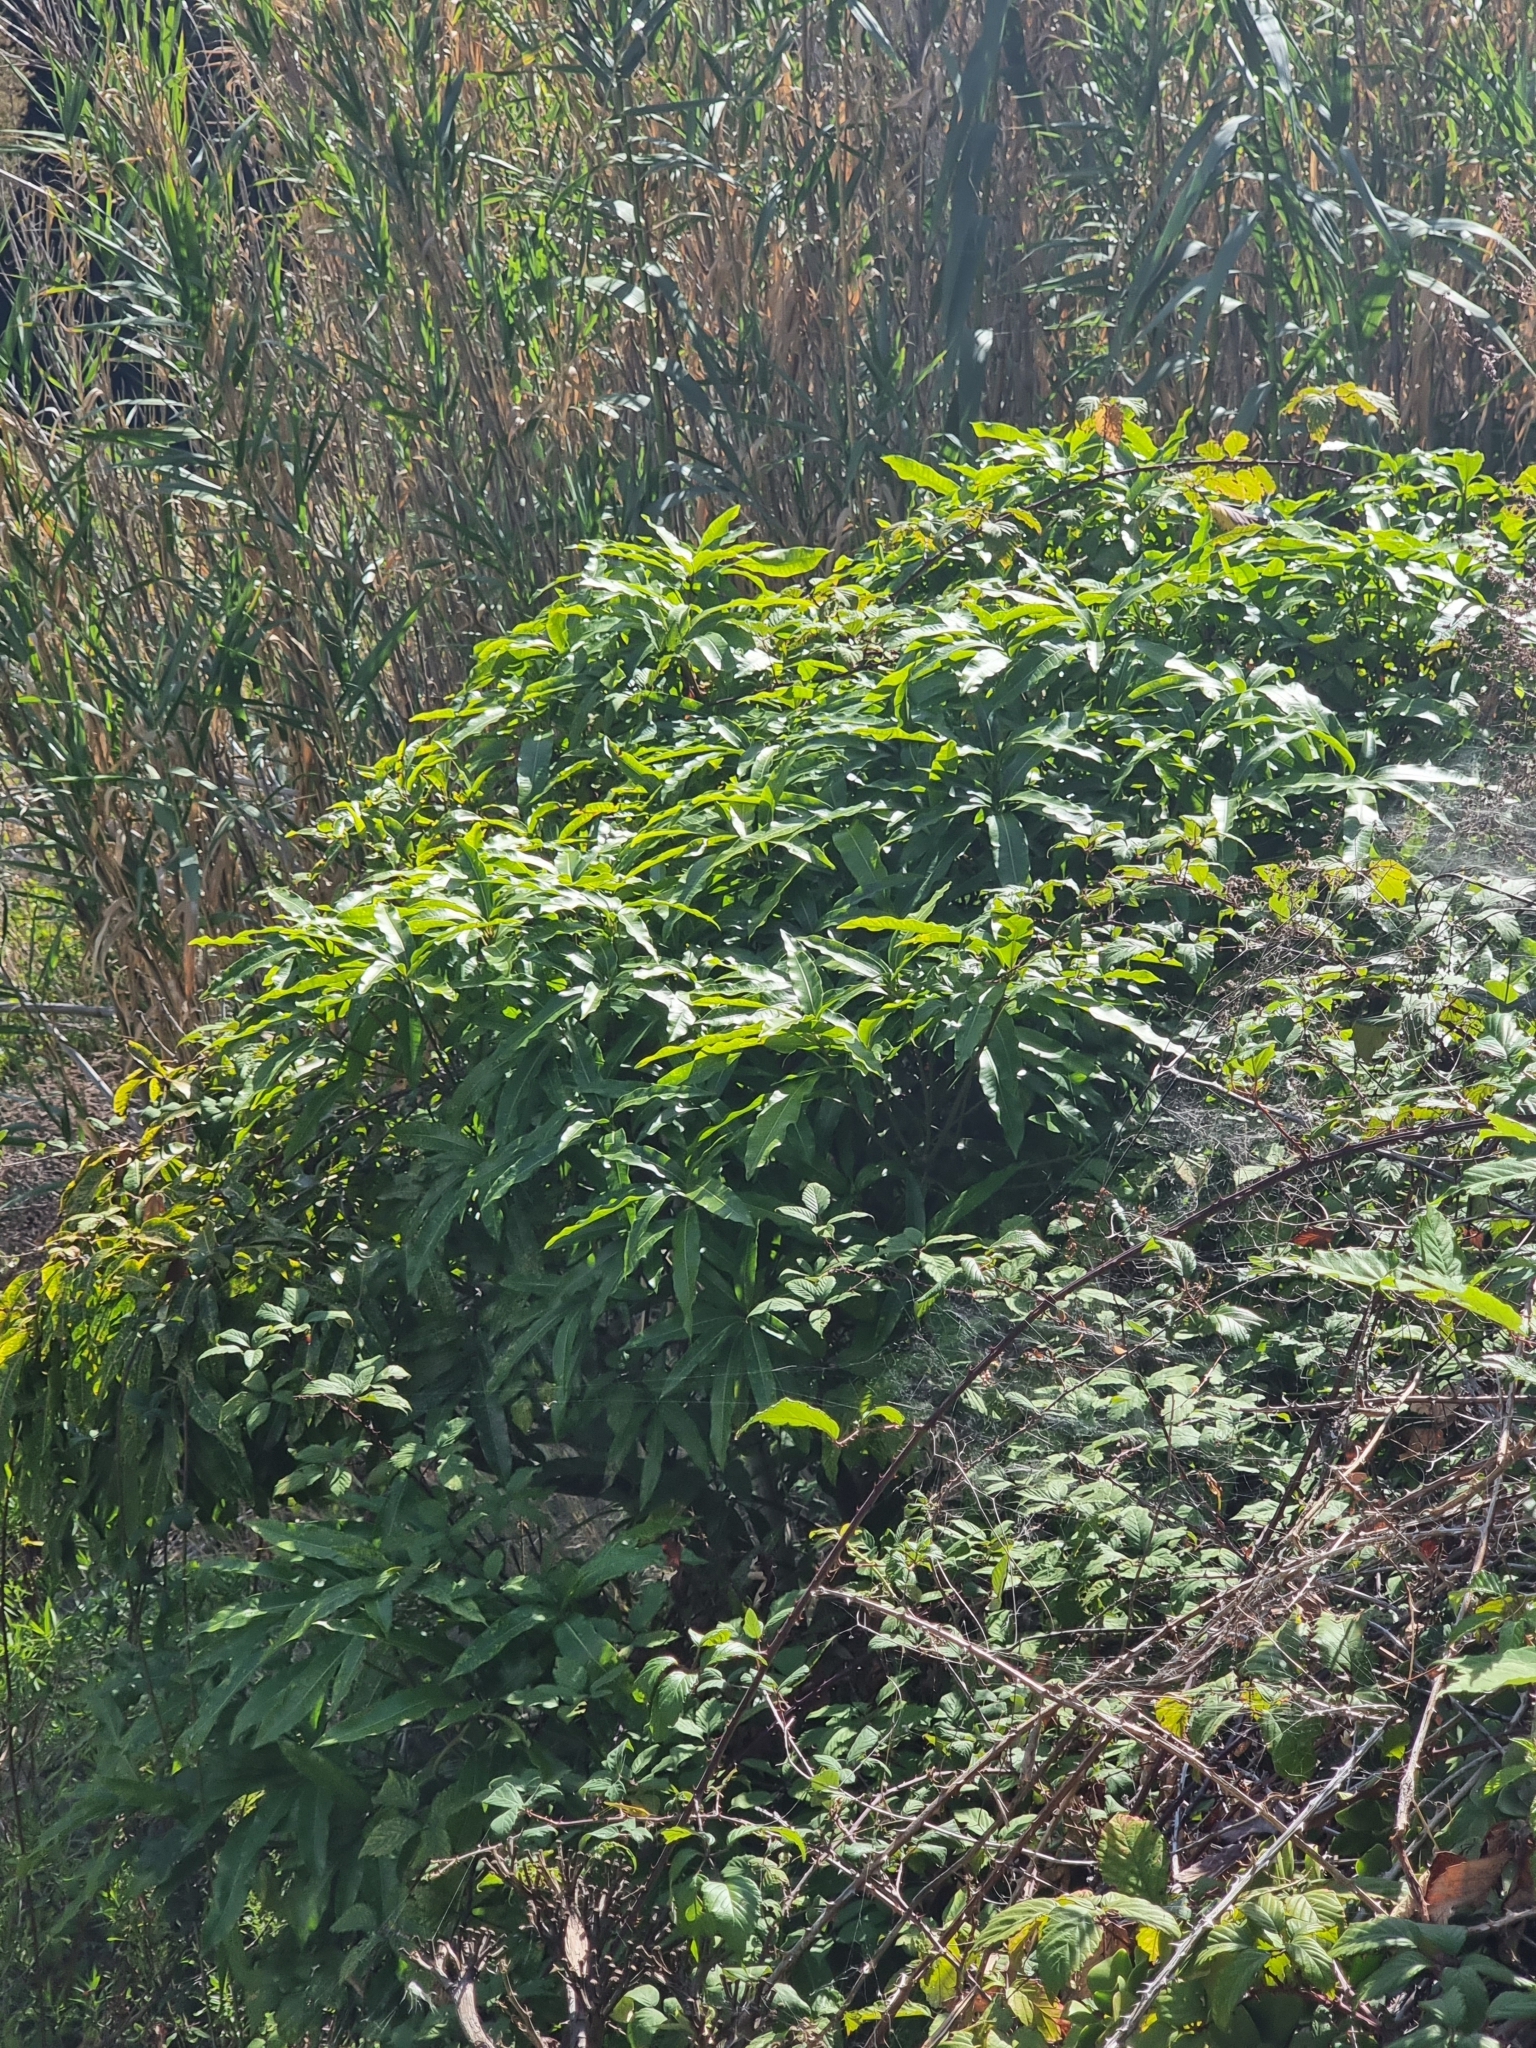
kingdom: Plantae
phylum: Tracheophyta
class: Magnoliopsida
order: Apiales
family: Pittosporaceae
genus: Pittosporum
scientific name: Pittosporum undulatum
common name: Australian cheesewood
